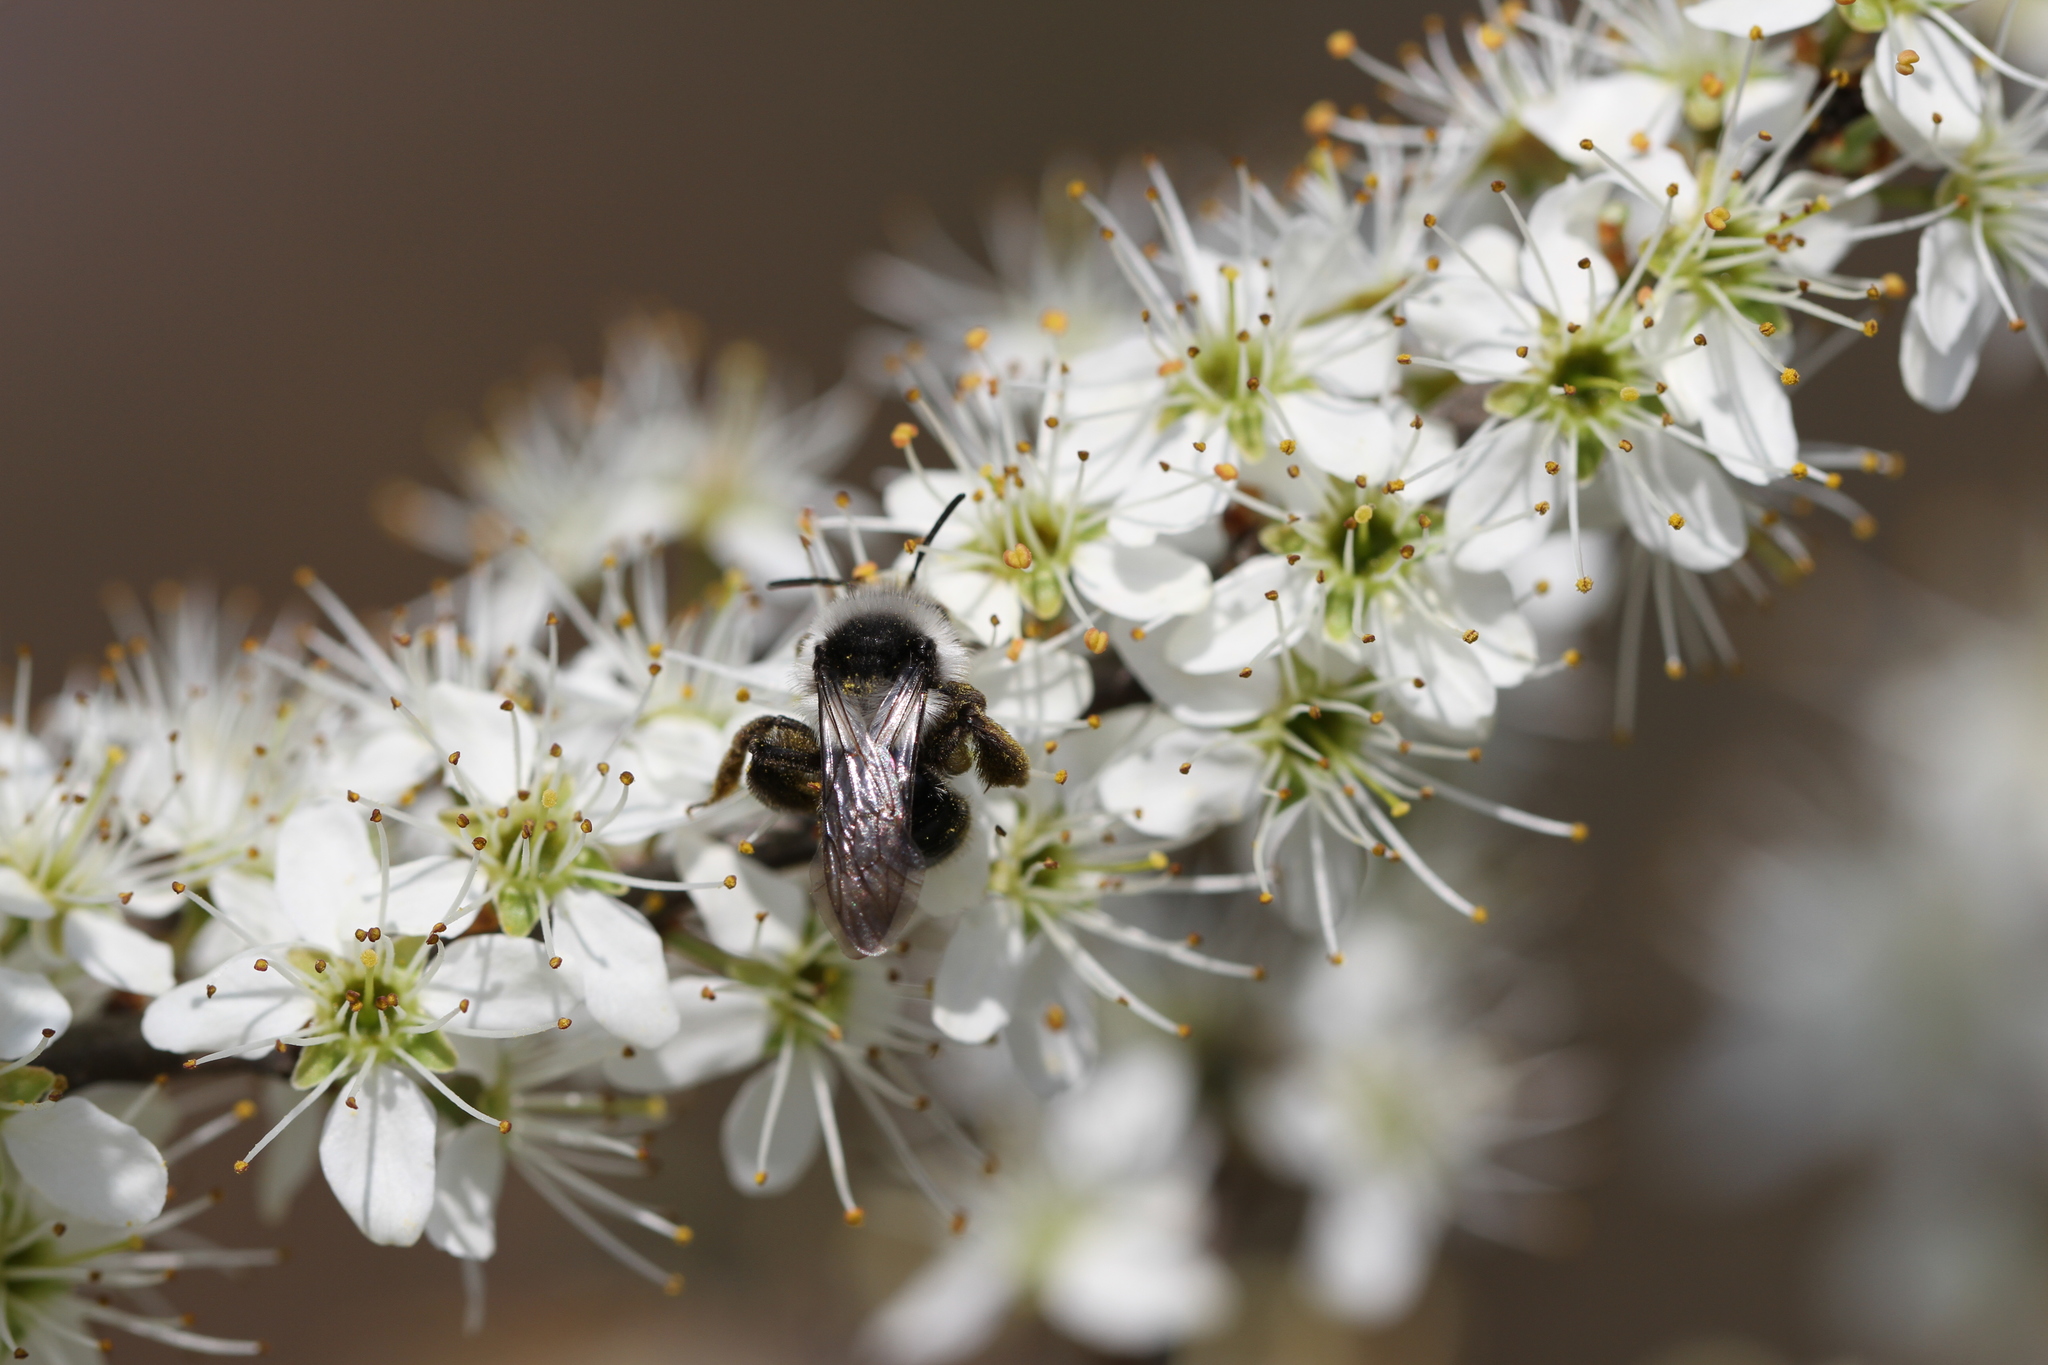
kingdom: Animalia
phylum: Arthropoda
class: Insecta
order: Hymenoptera
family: Andrenidae
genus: Andrena
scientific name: Andrena cineraria
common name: Ashy mining bee
